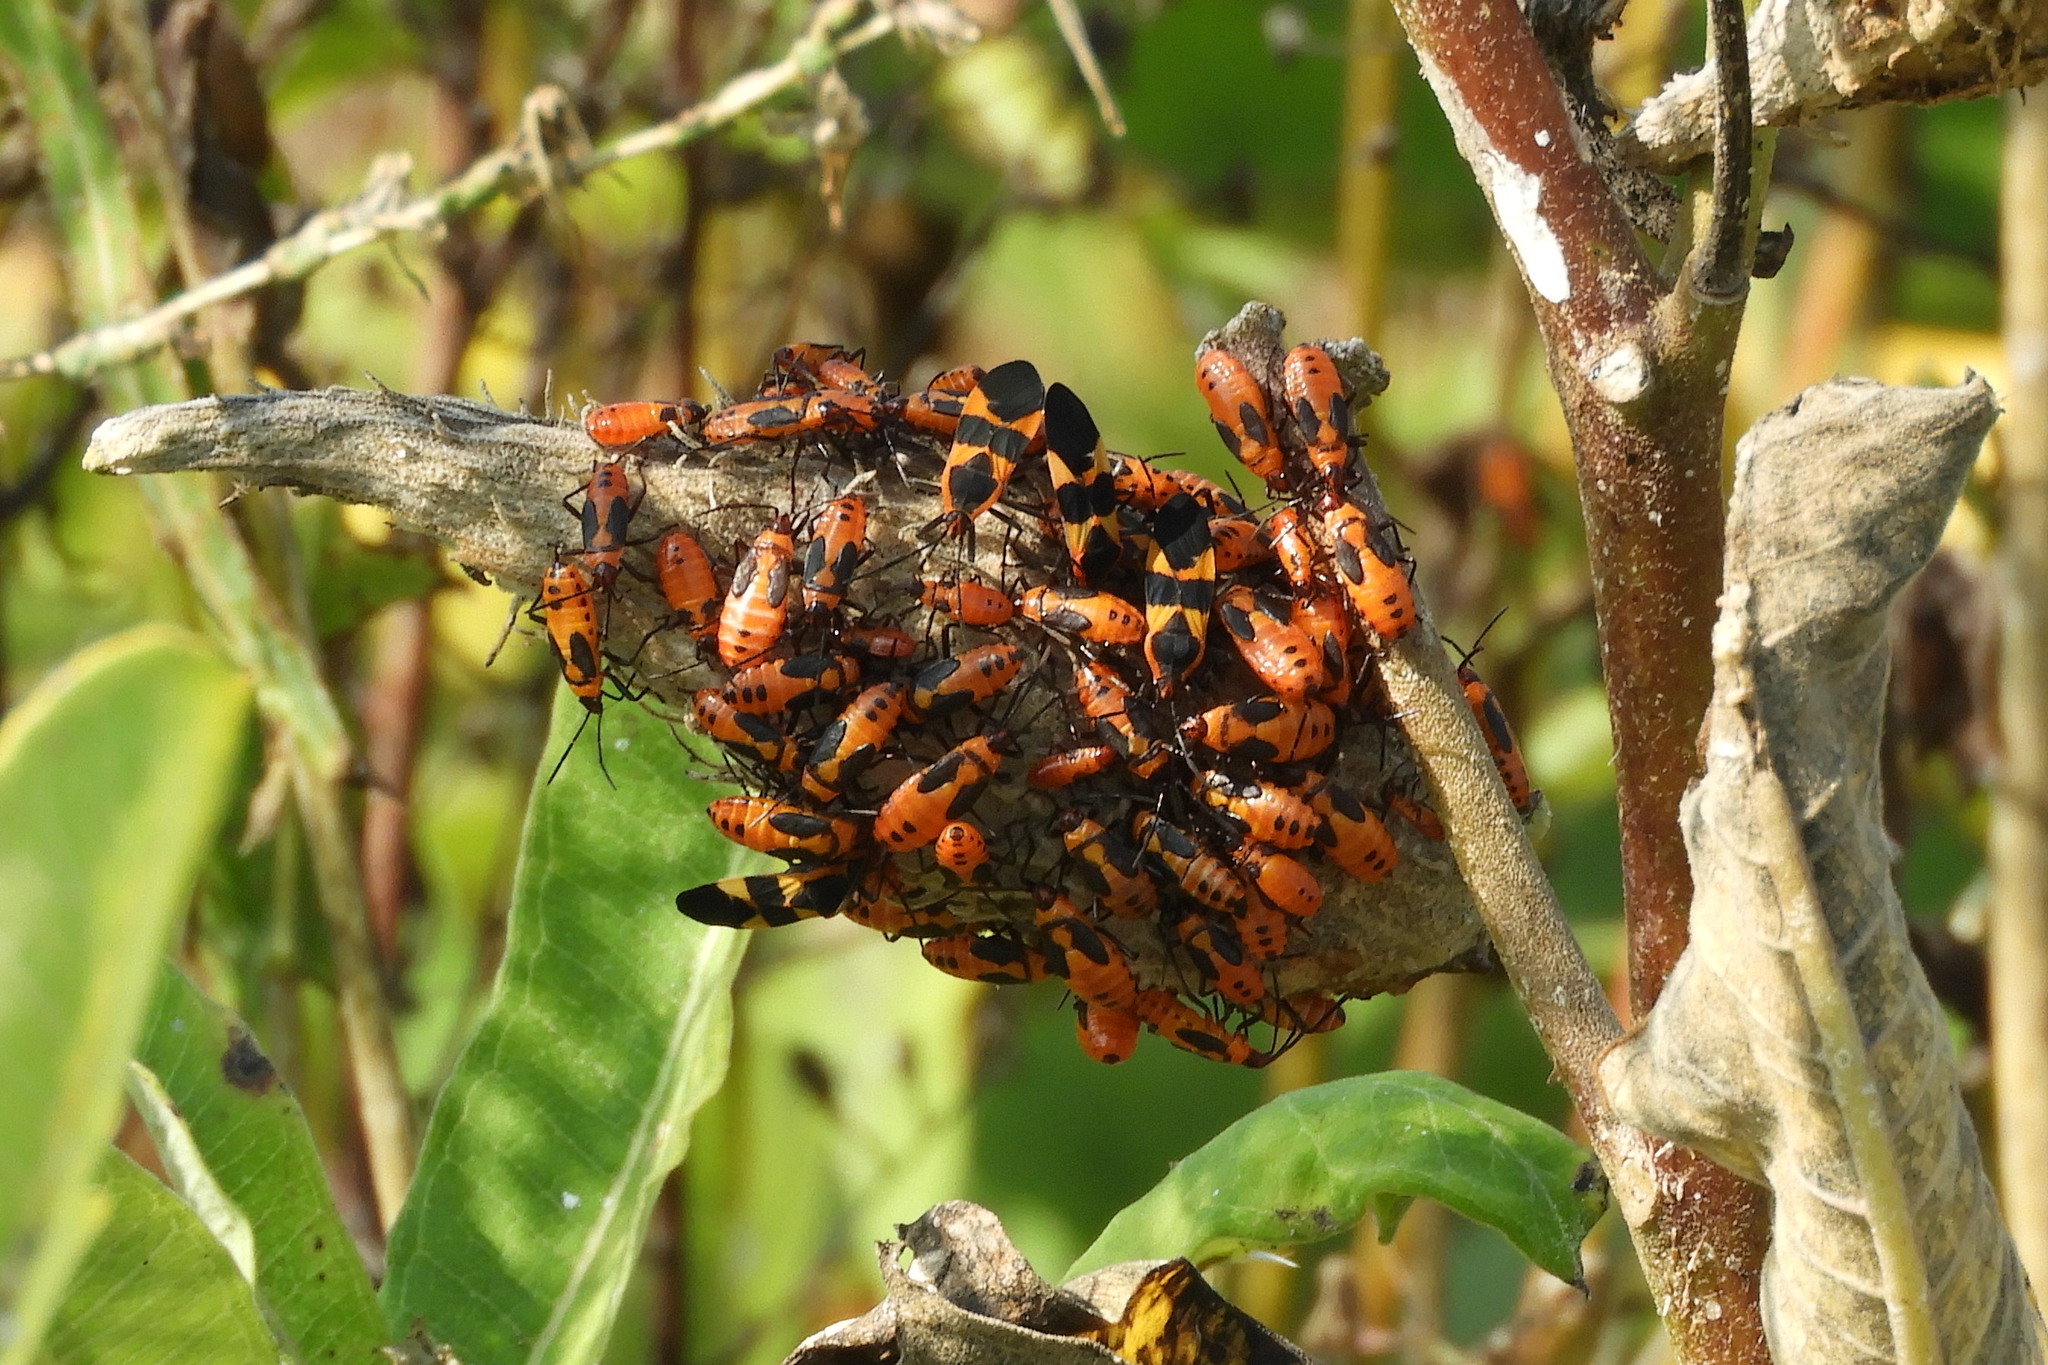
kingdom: Animalia
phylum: Arthropoda
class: Insecta
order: Hemiptera
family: Lygaeidae
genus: Oncopeltus
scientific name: Oncopeltus fasciatus
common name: Large milkweed bug
